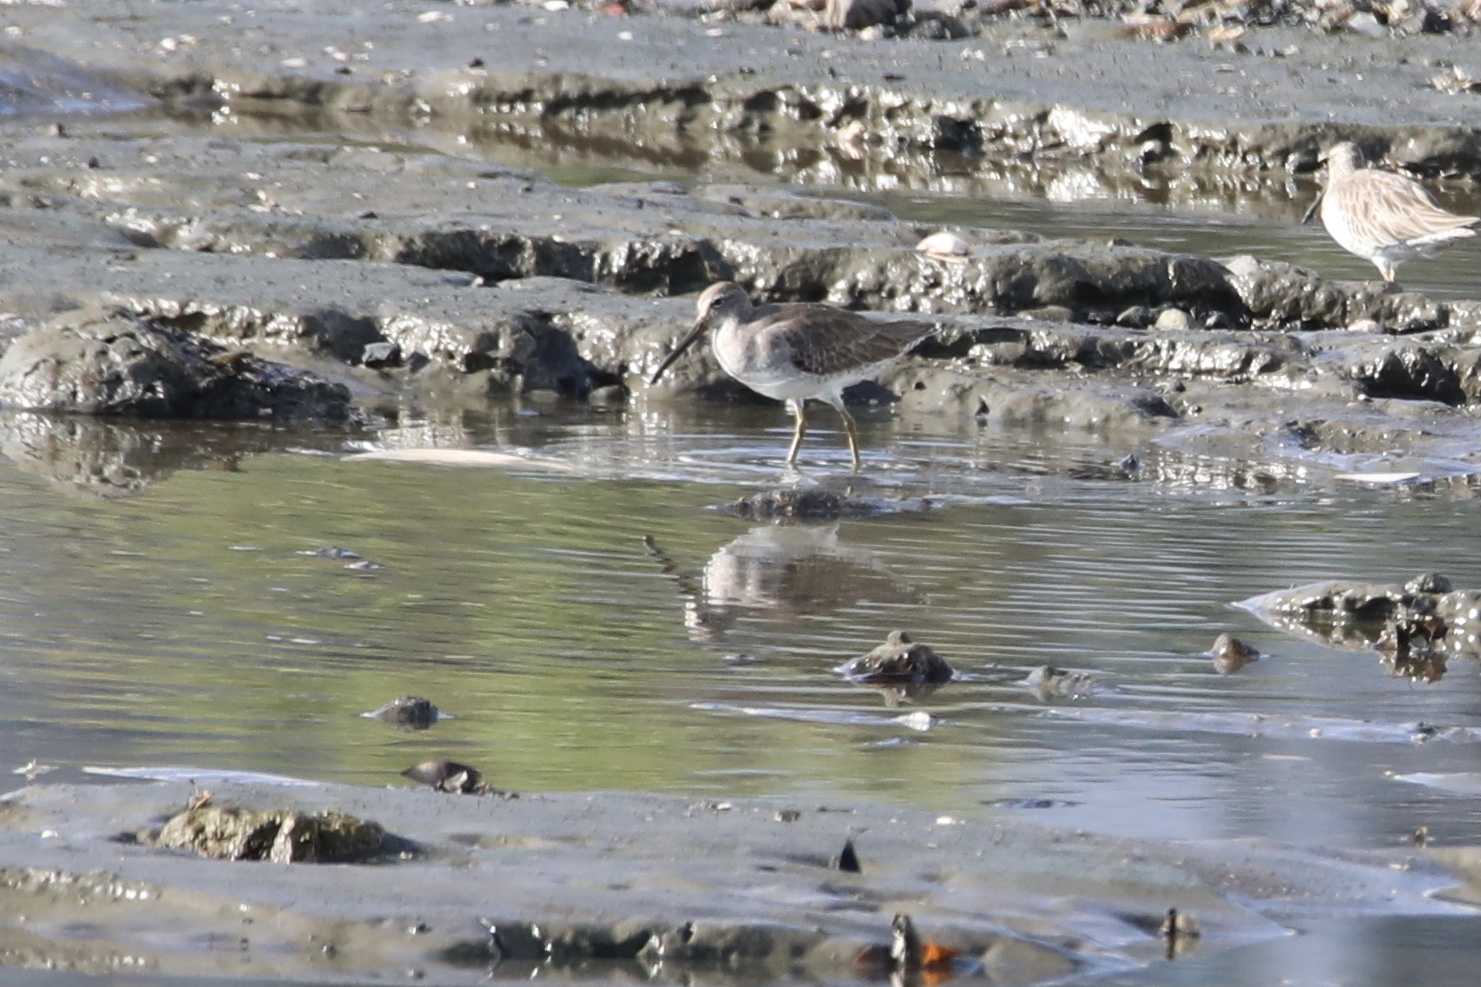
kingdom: Animalia
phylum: Chordata
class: Aves
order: Charadriiformes
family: Scolopacidae
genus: Limnodromus
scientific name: Limnodromus griseus
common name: Short-billed dowitcher
